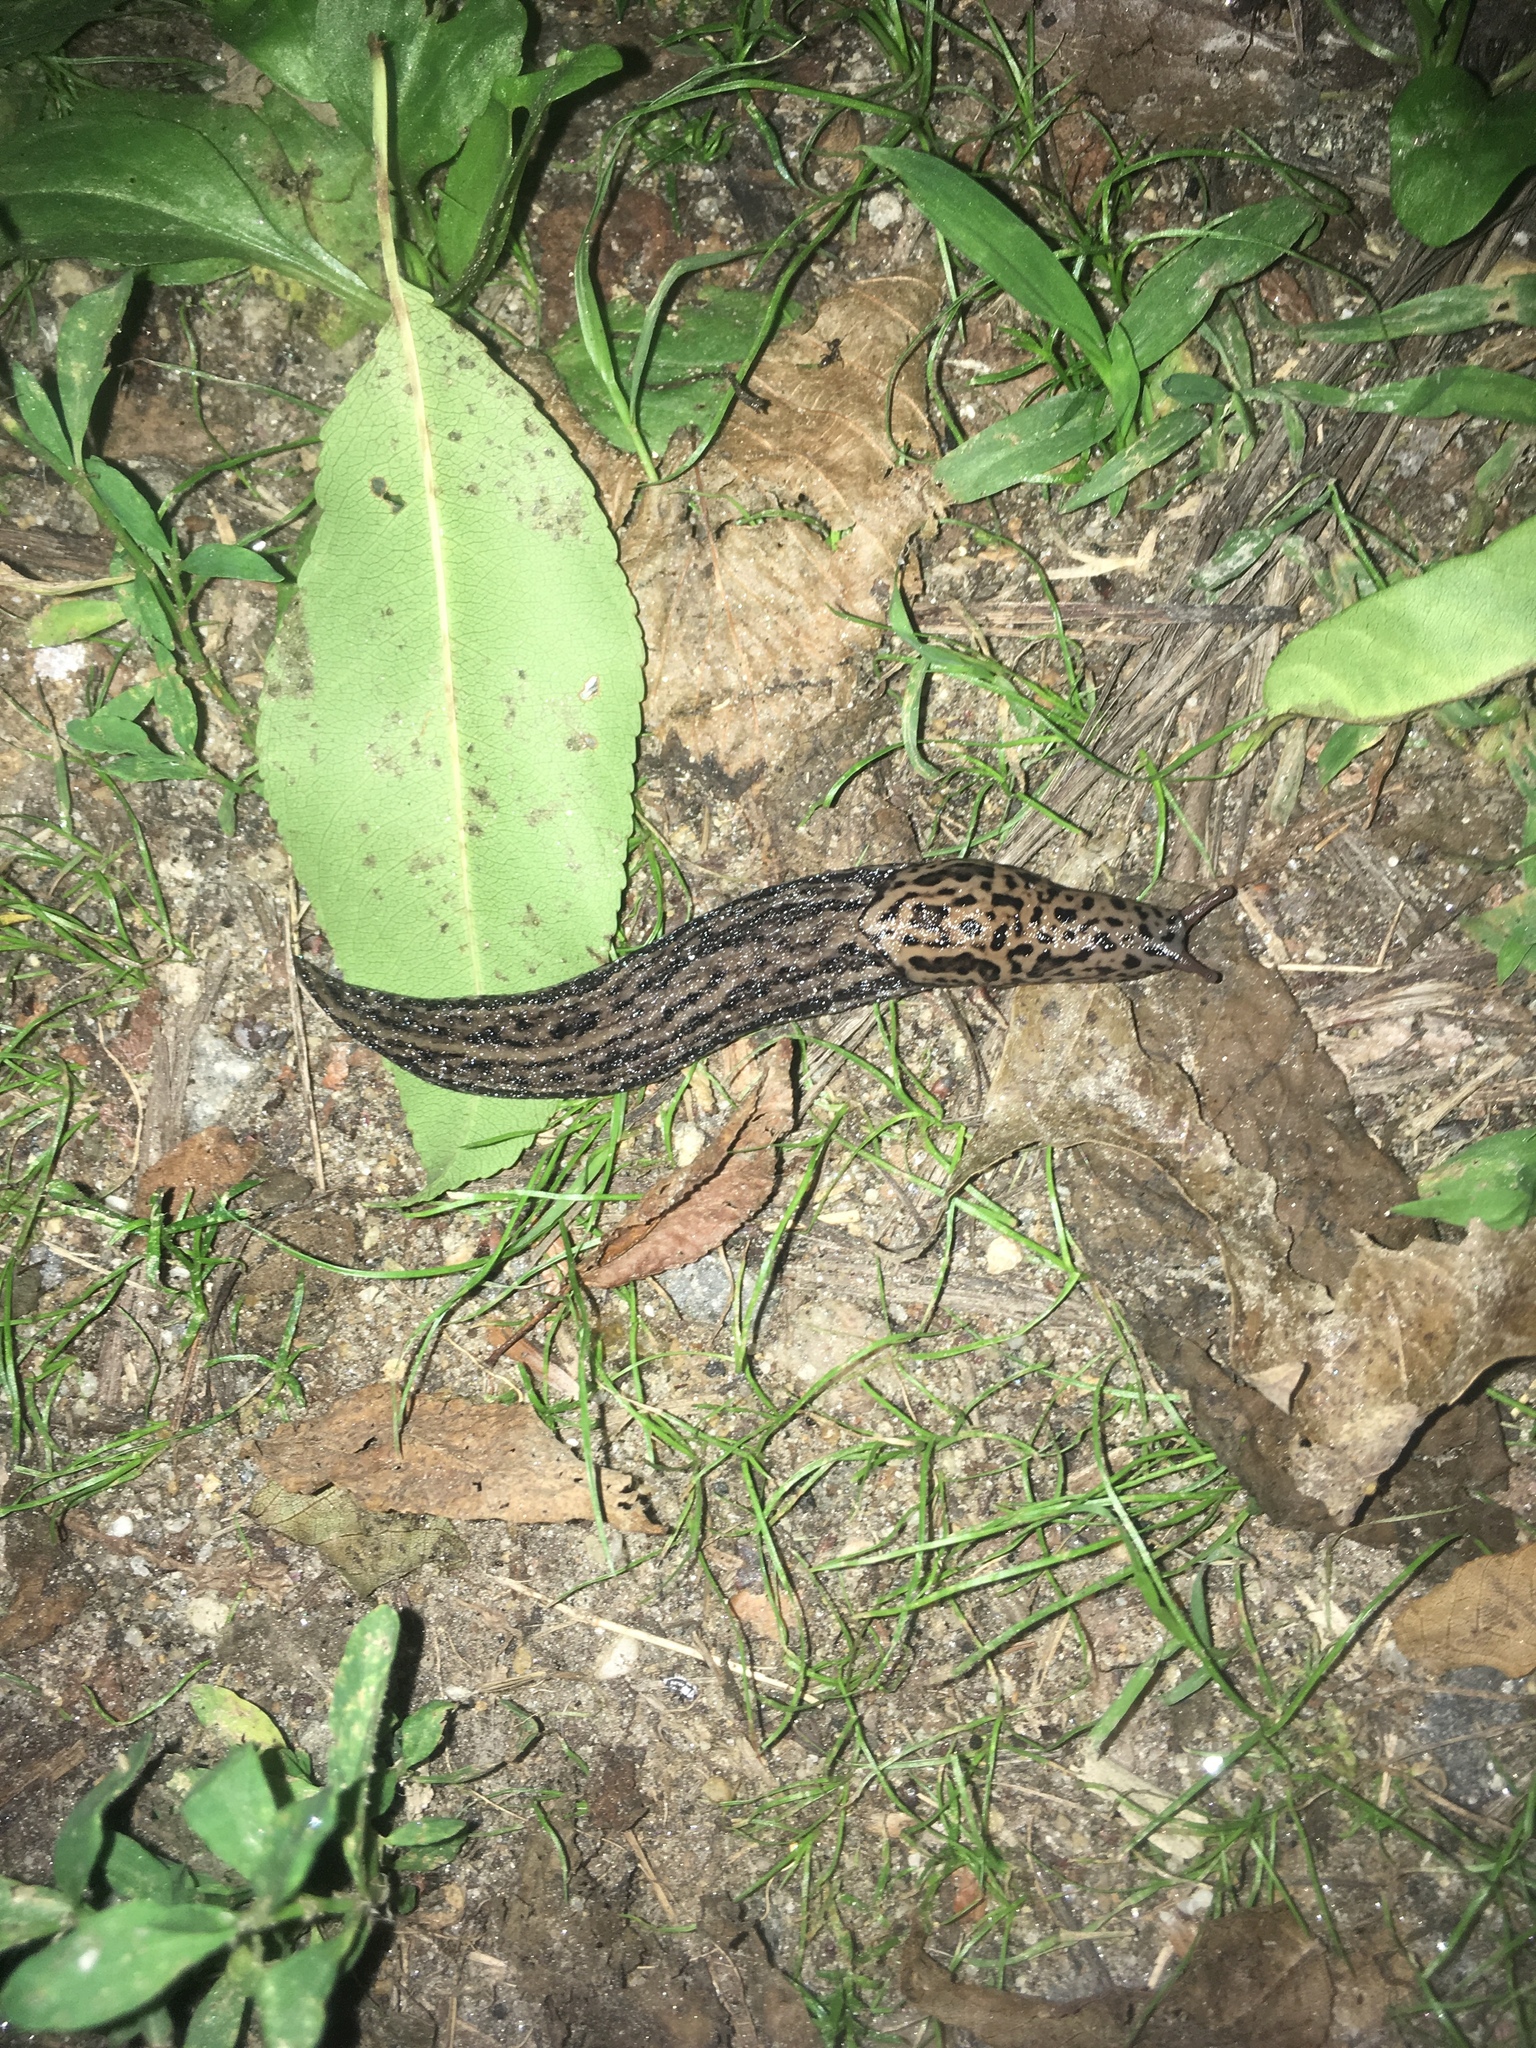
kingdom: Animalia
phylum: Mollusca
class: Gastropoda
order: Stylommatophora
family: Limacidae
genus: Limax
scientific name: Limax maximus
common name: Great grey slug
